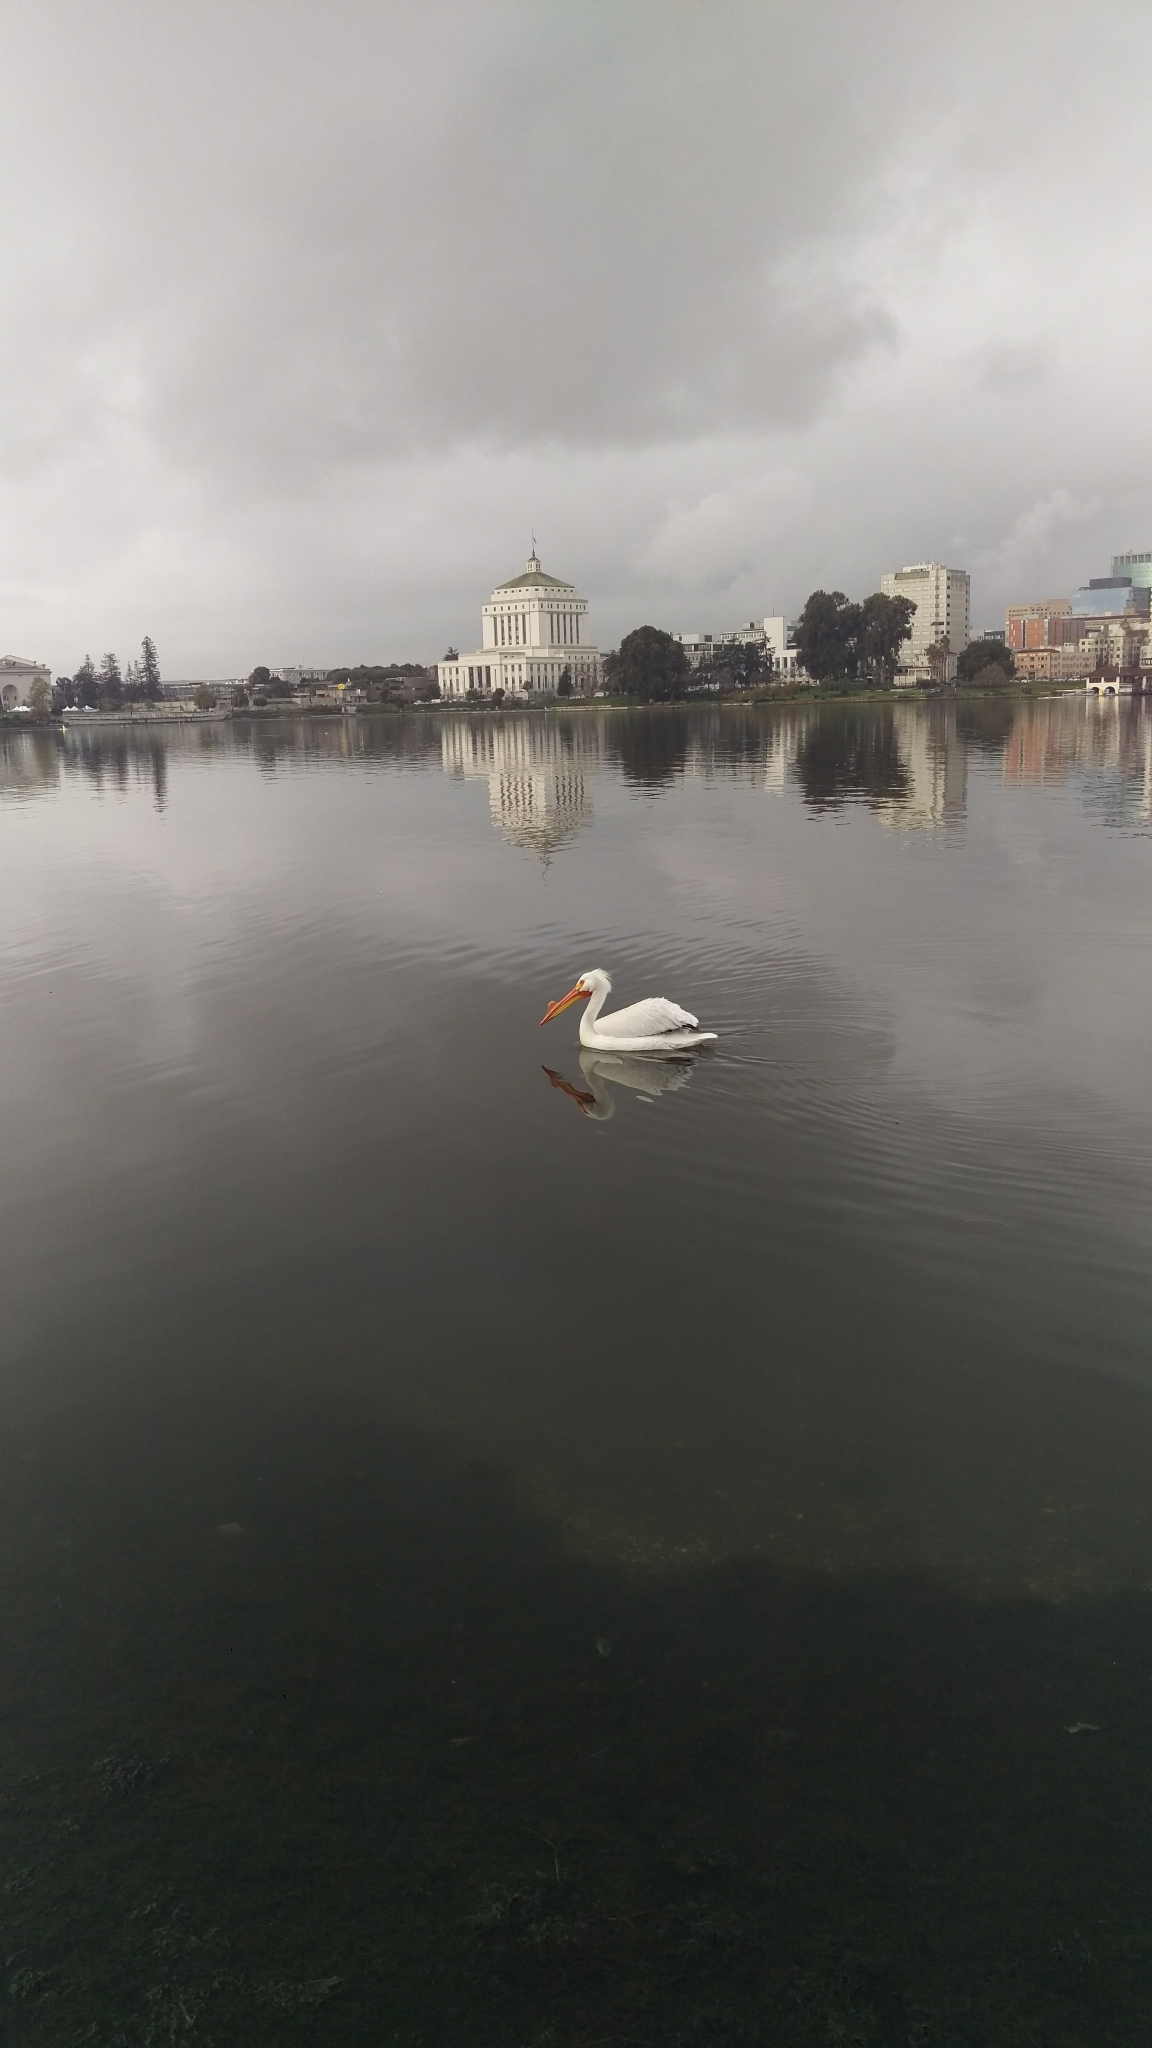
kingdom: Animalia
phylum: Chordata
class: Aves
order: Pelecaniformes
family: Pelecanidae
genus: Pelecanus
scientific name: Pelecanus erythrorhynchos
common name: American white pelican
